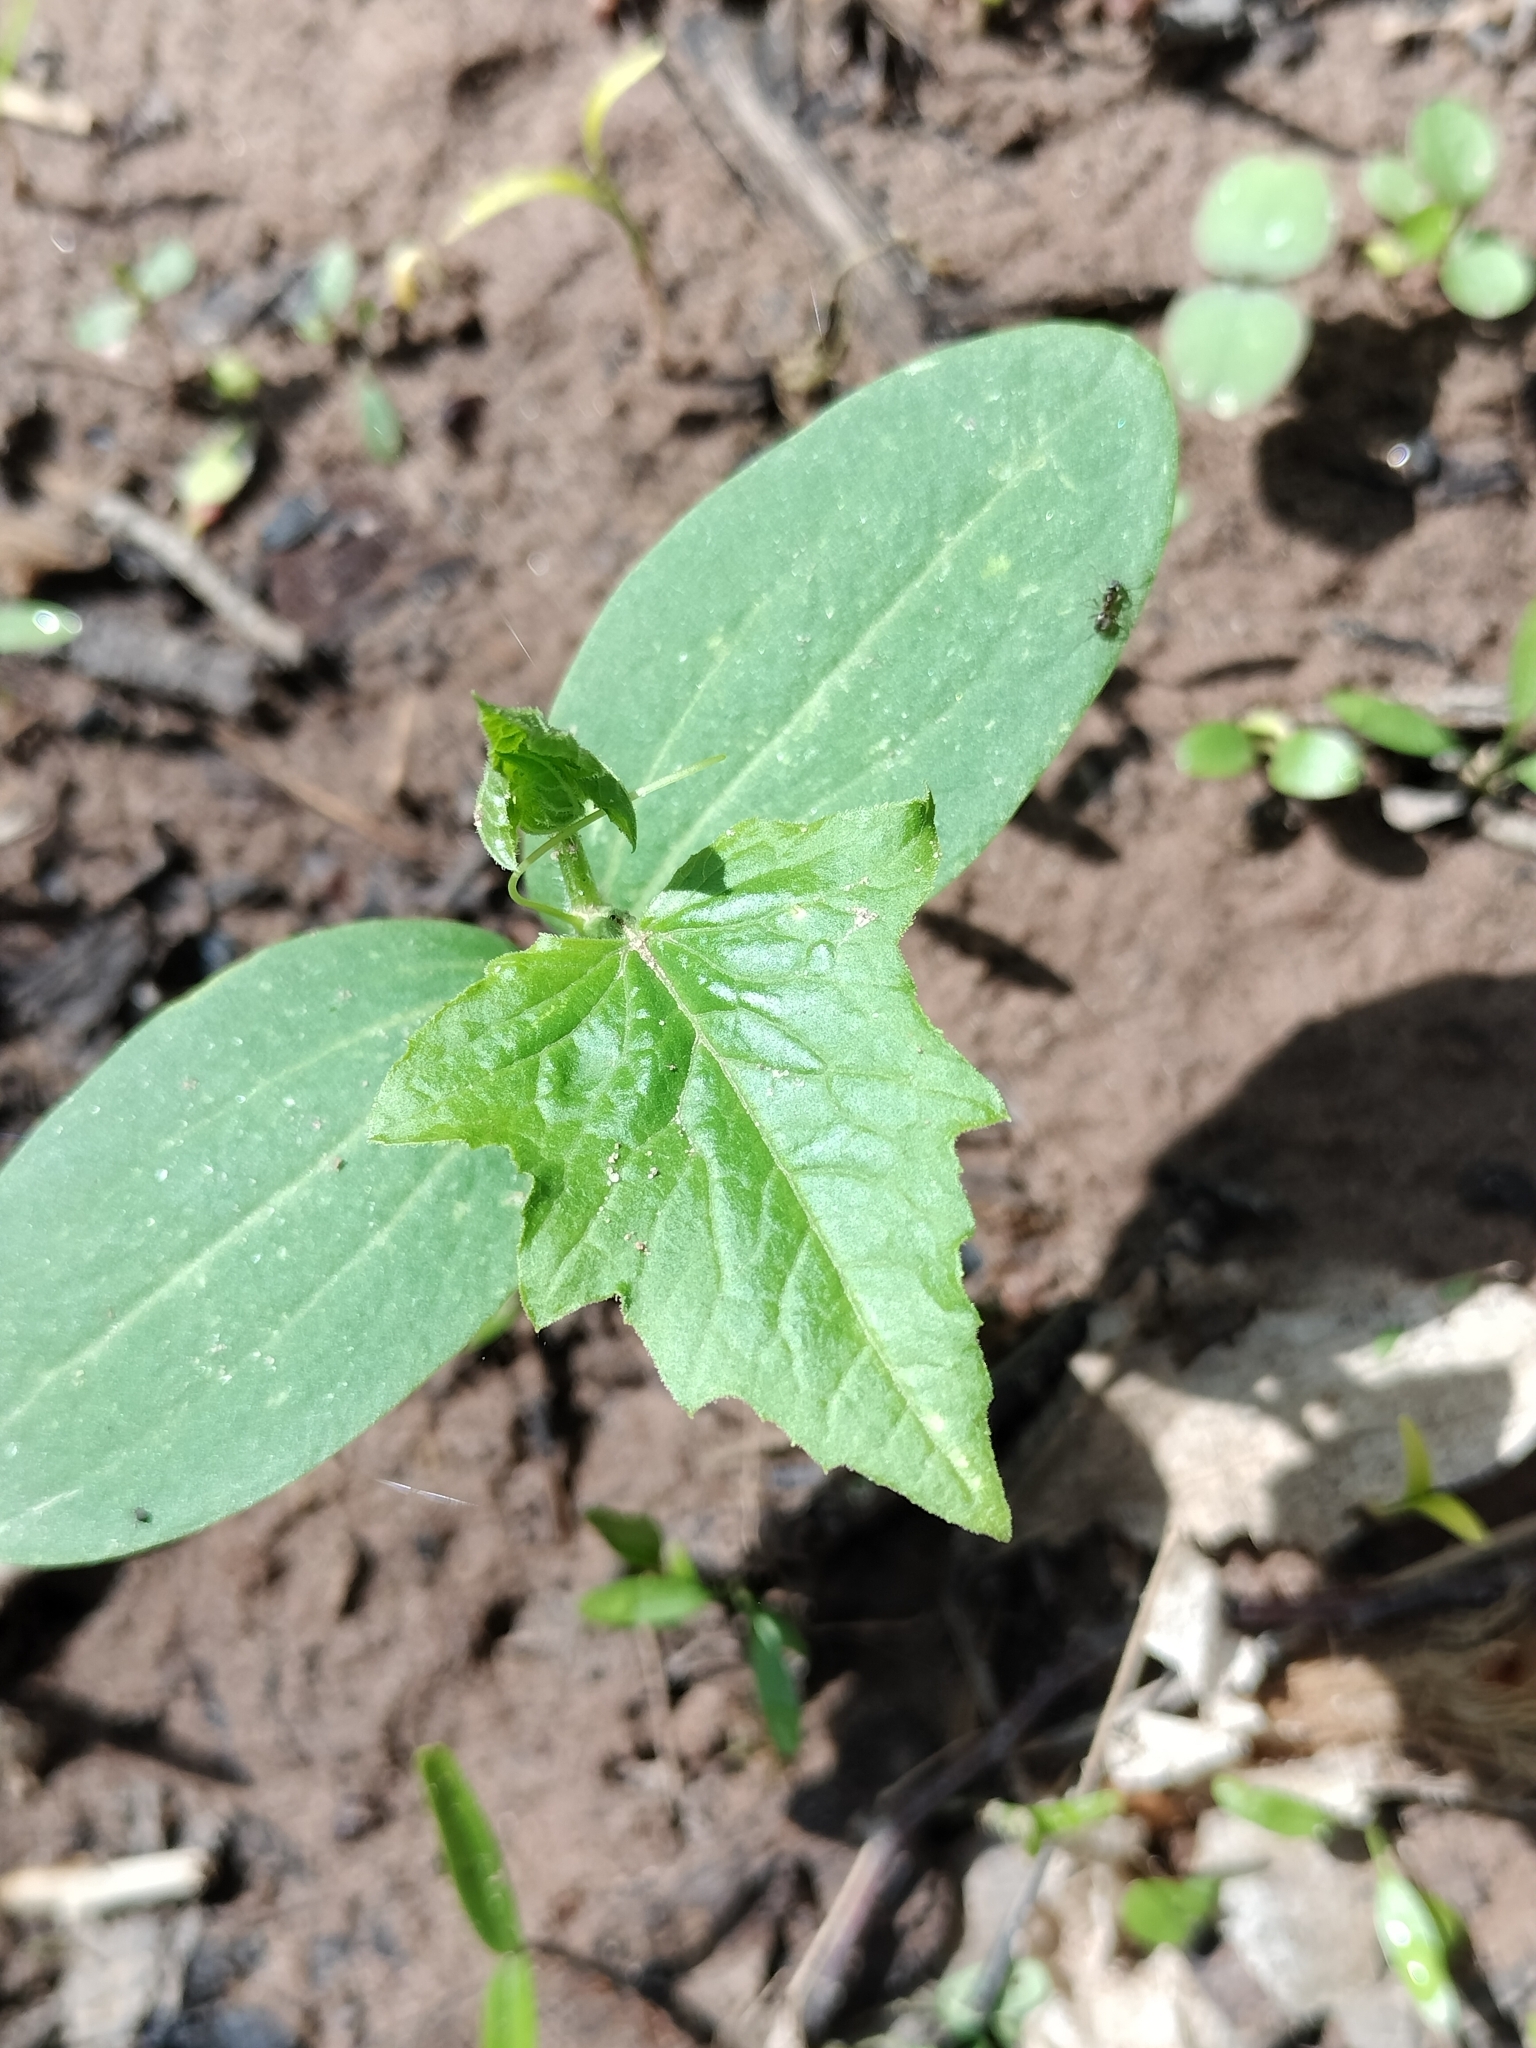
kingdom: Plantae
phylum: Tracheophyta
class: Magnoliopsida
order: Cucurbitales
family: Cucurbitaceae
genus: Echinocystis
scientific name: Echinocystis lobata
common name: Wild cucumber
